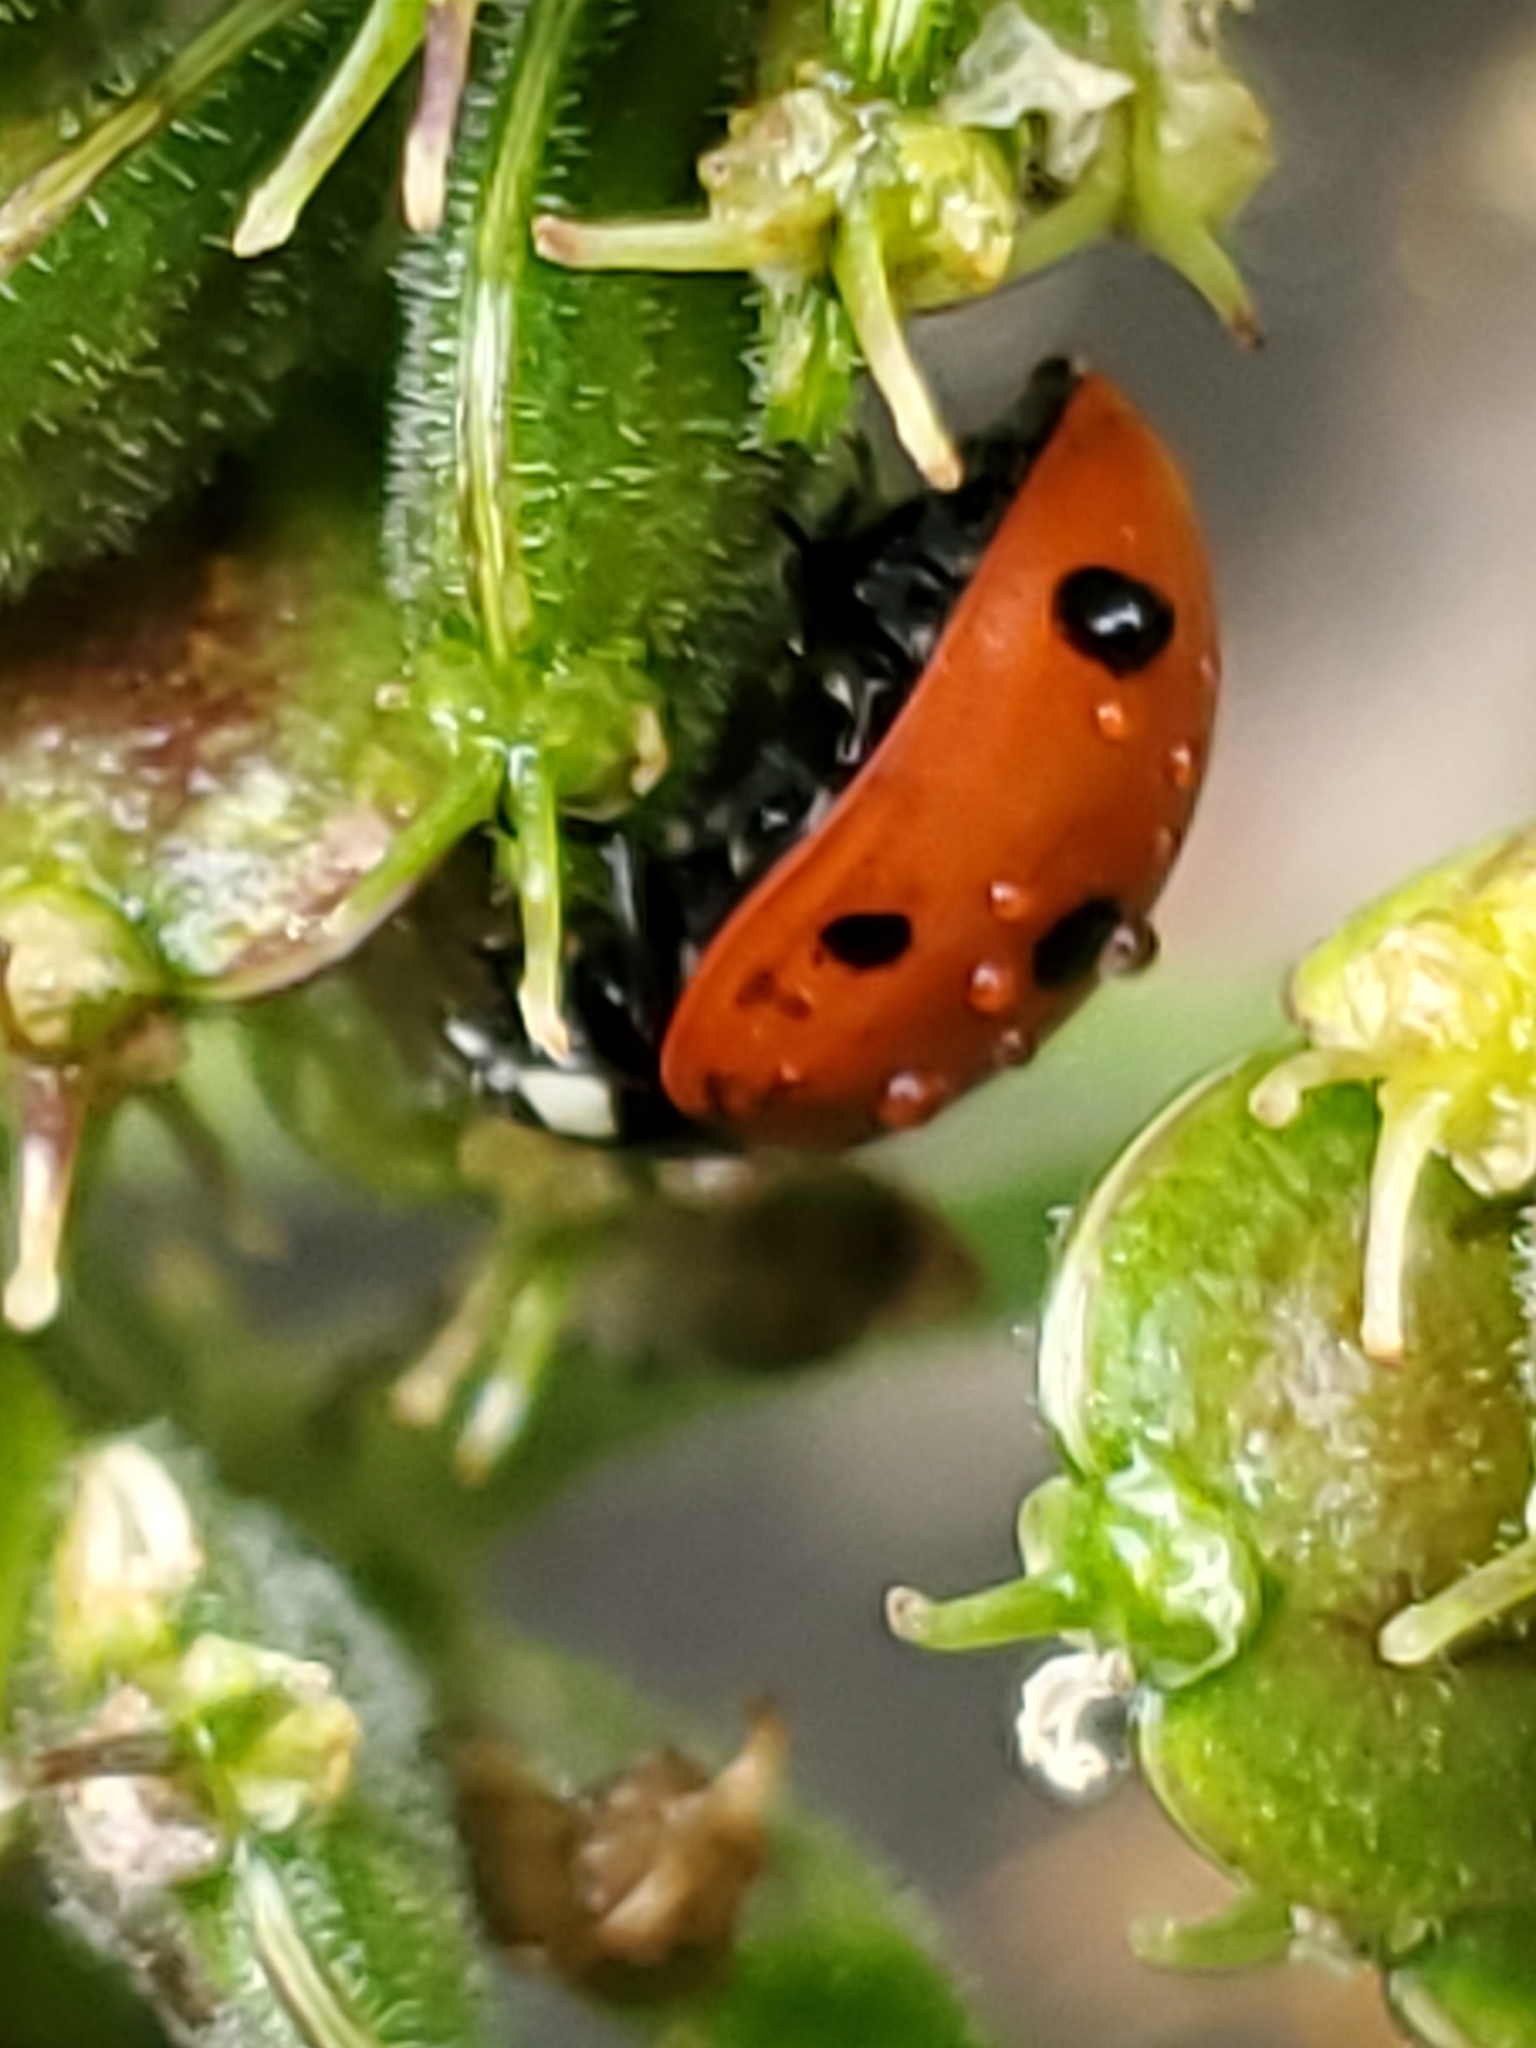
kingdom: Animalia
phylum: Arthropoda
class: Insecta
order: Coleoptera
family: Coccinellidae
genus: Coccinella
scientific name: Coccinella septempunctata
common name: Sevenspotted lady beetle
